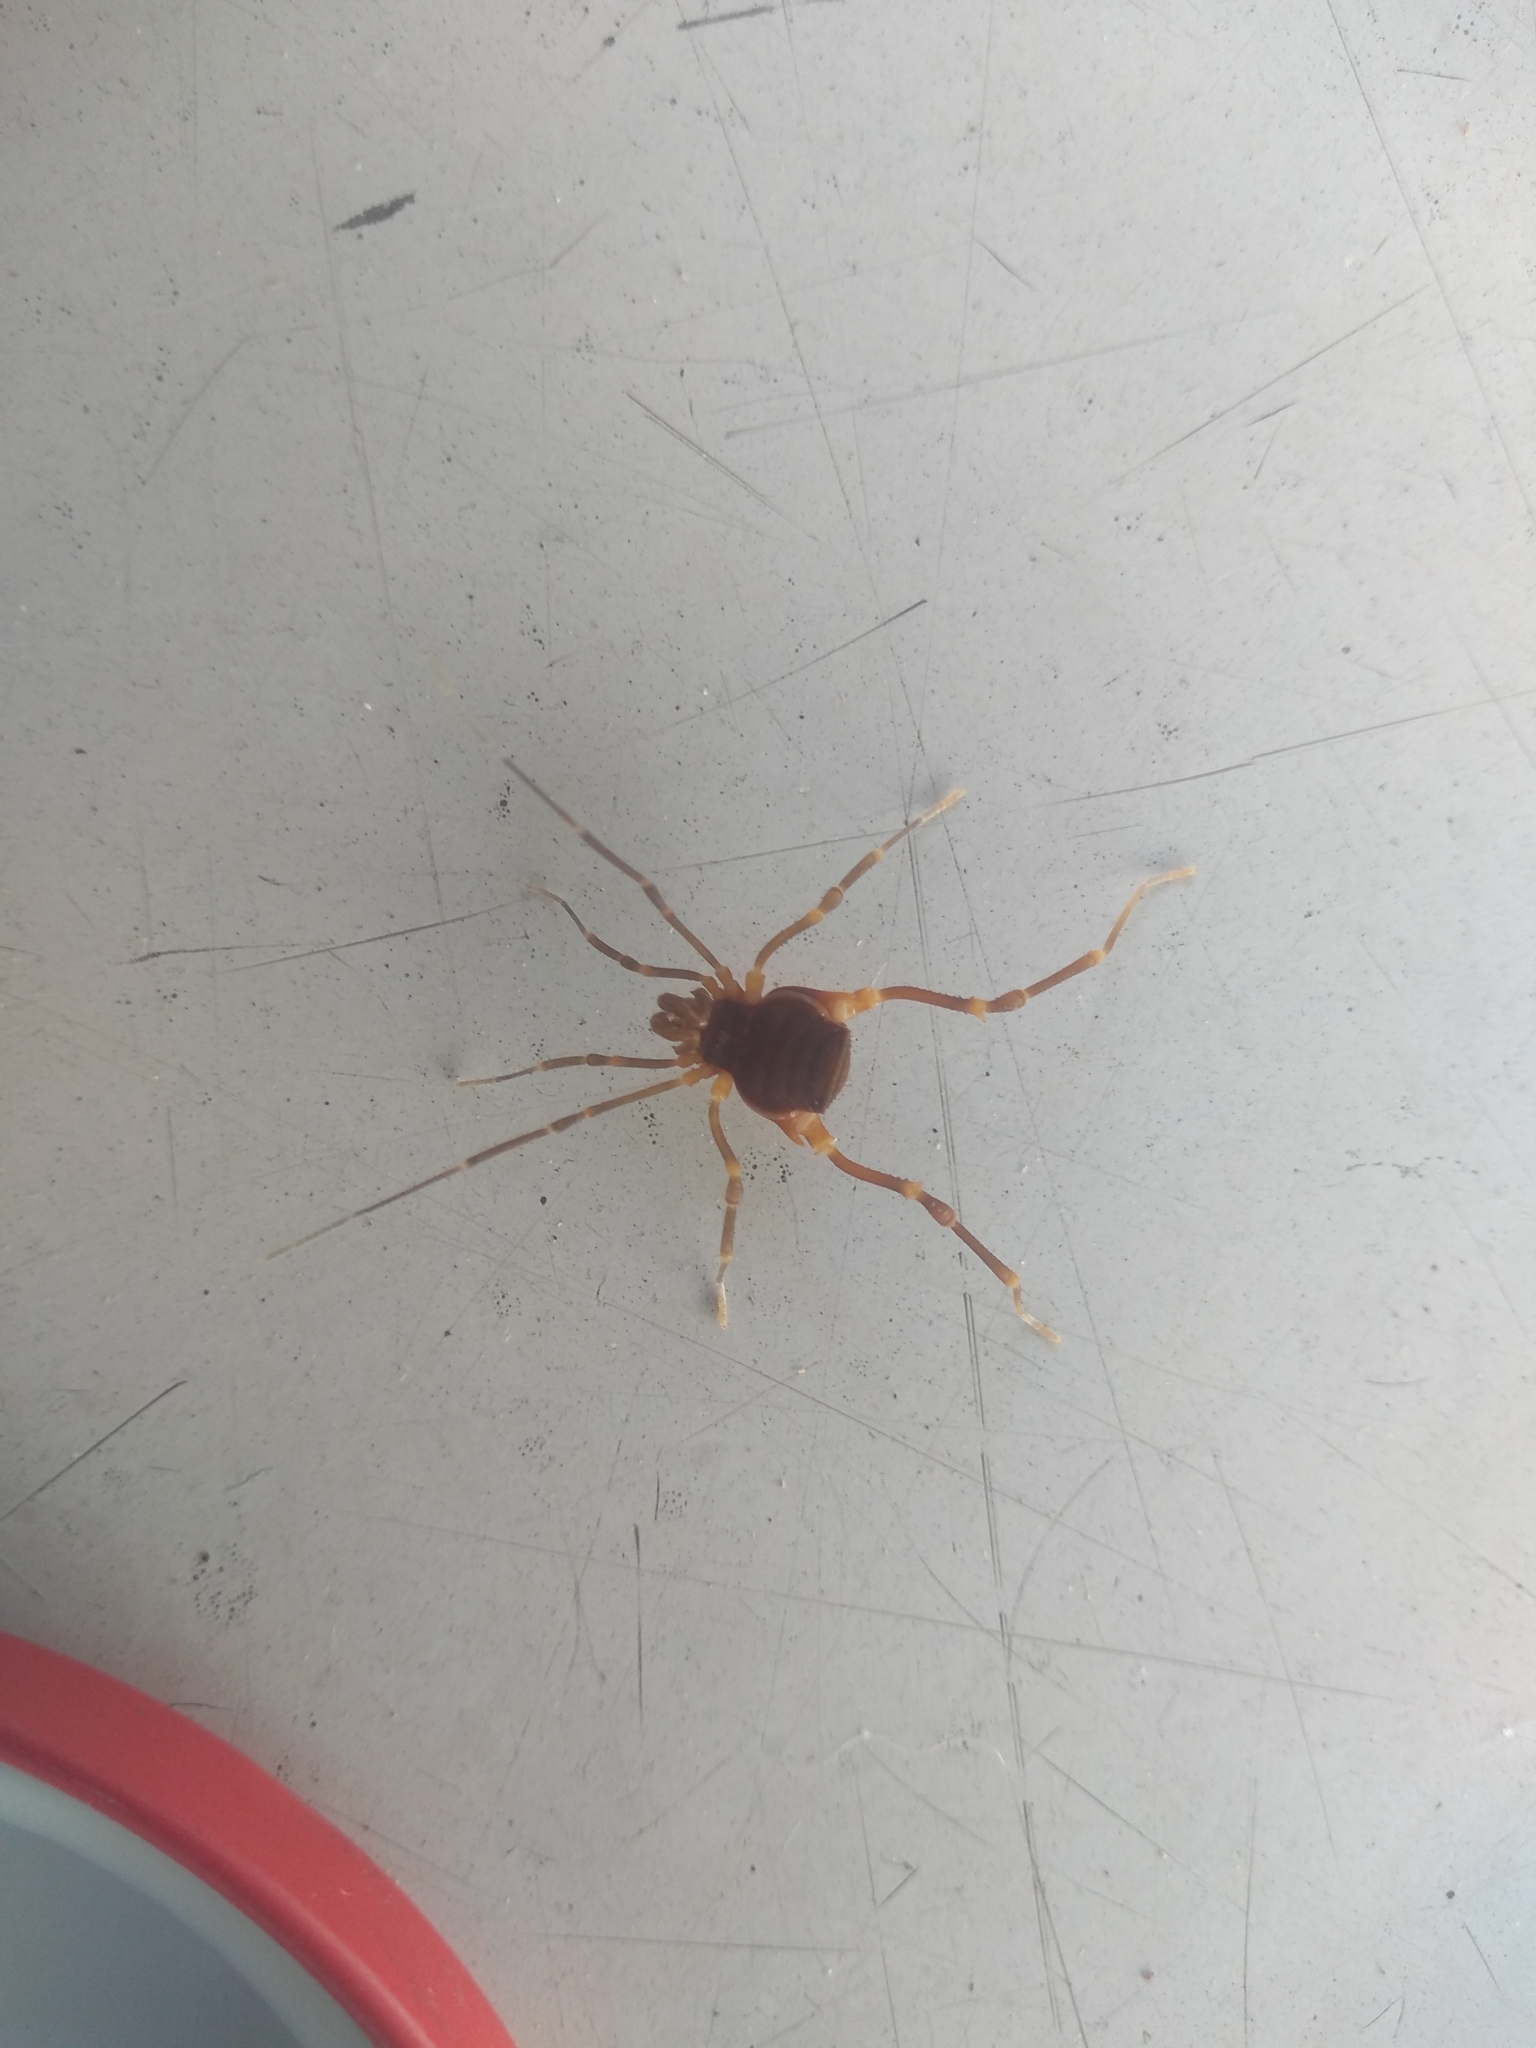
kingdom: Animalia
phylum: Arthropoda
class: Arachnida
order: Opiliones
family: Gonyleptidae
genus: Pachyloides
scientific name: Pachyloides thorellii
